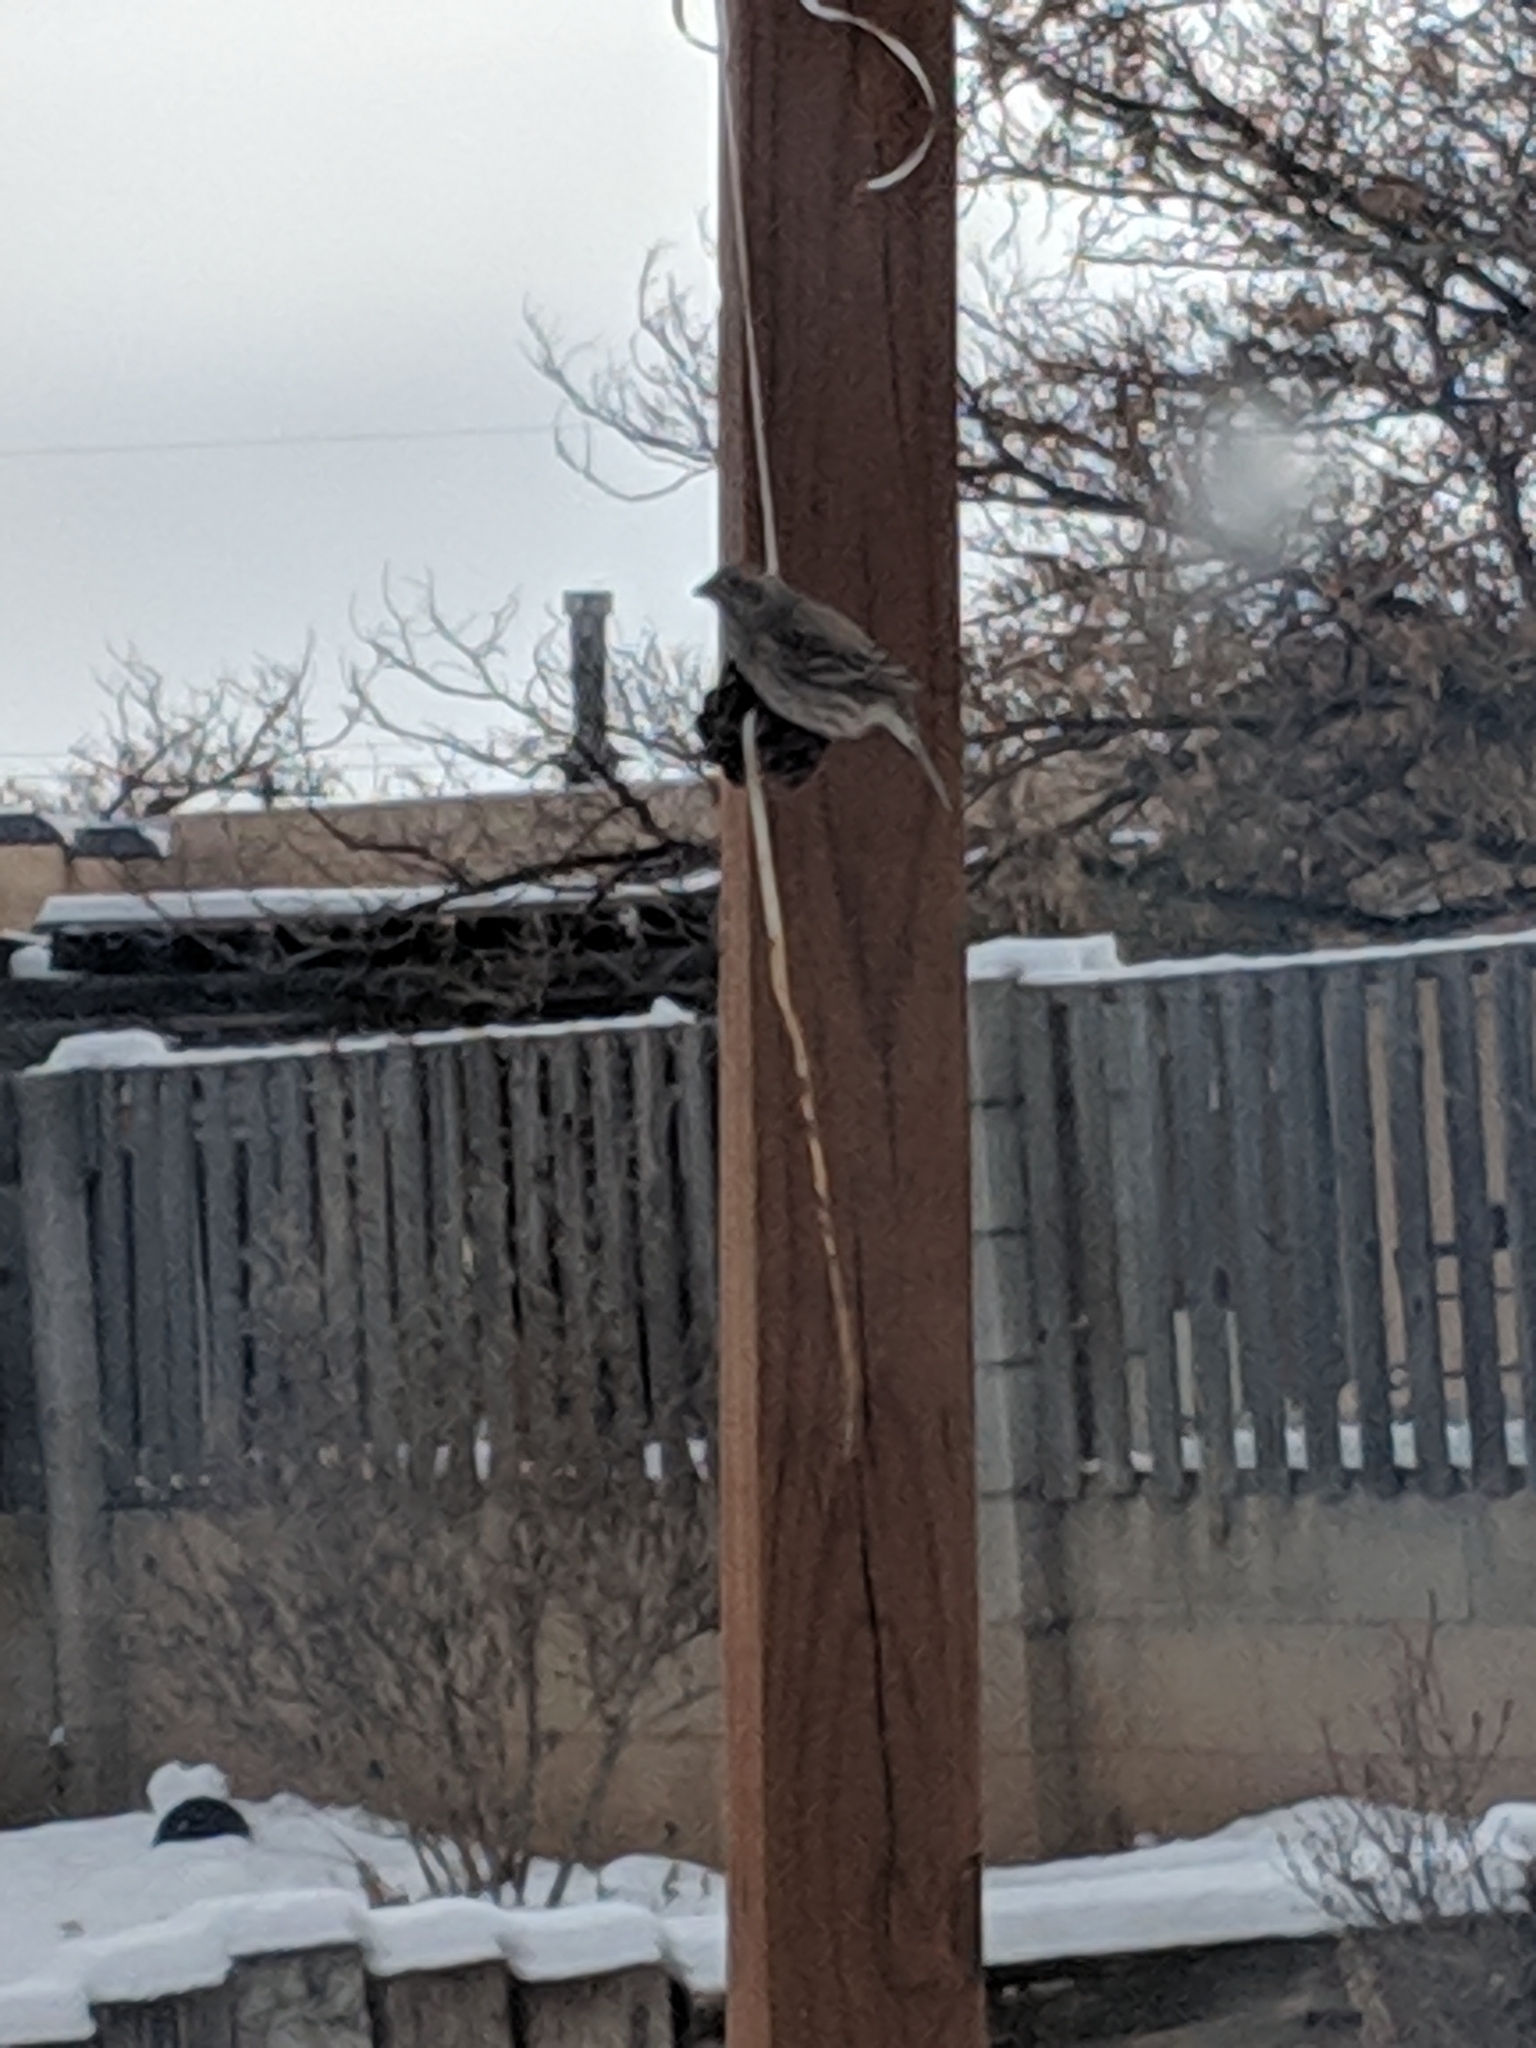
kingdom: Animalia
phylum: Chordata
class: Aves
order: Passeriformes
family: Fringillidae
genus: Haemorhous
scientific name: Haemorhous cassinii
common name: Cassin's finch
